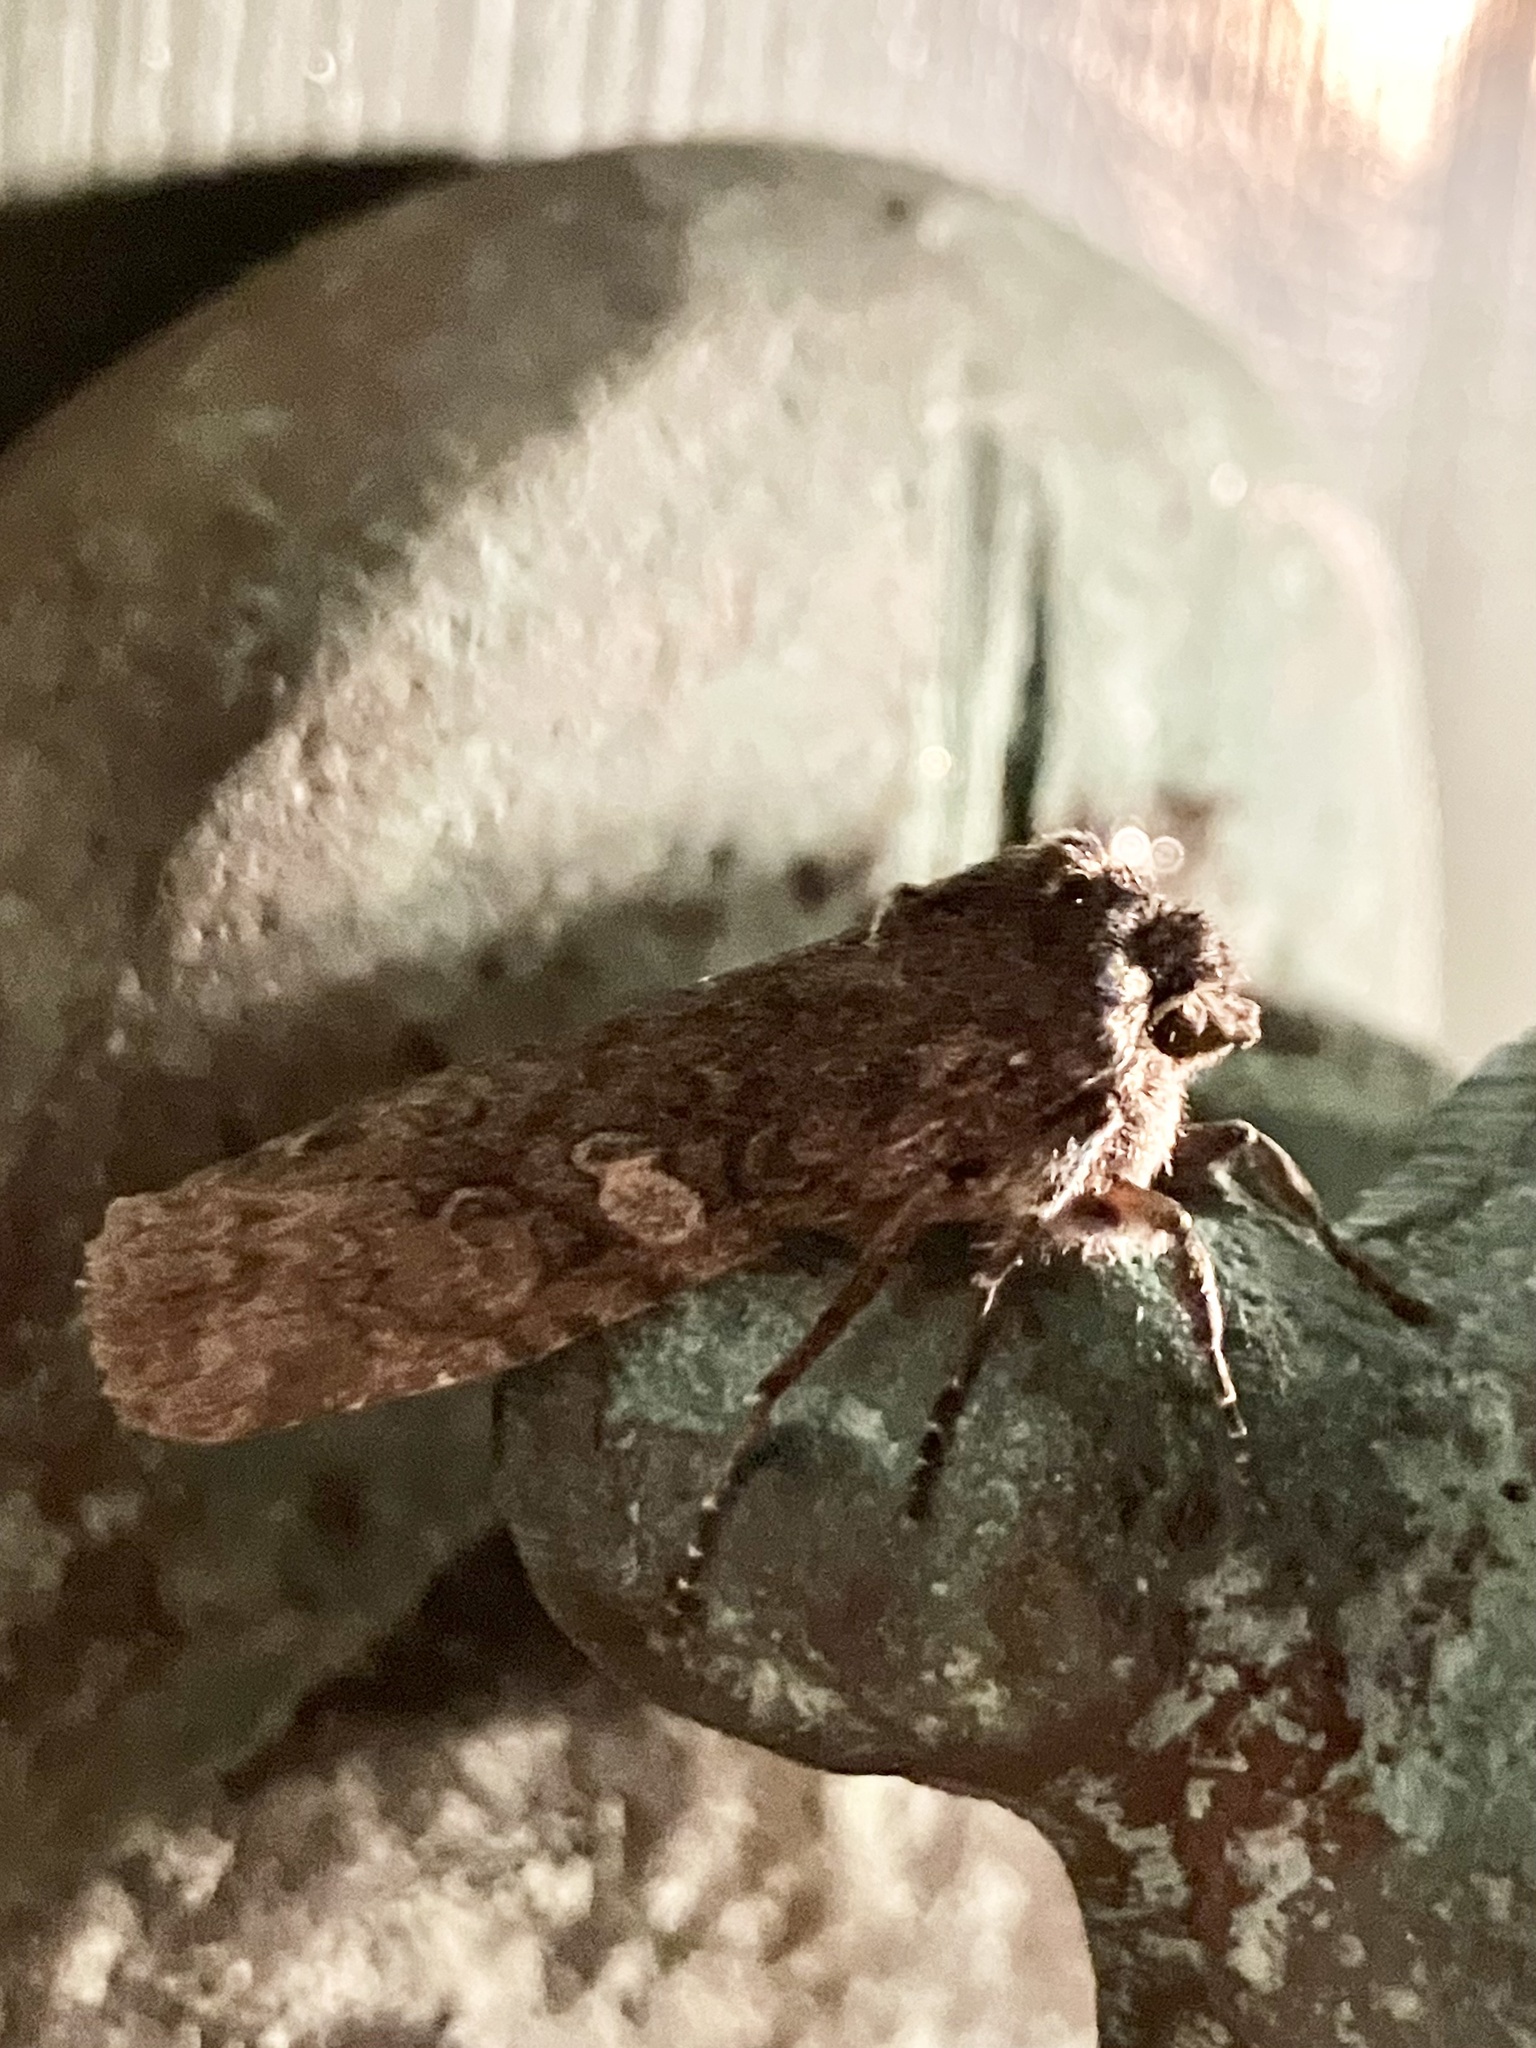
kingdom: Animalia
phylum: Arthropoda
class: Insecta
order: Lepidoptera
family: Noctuidae
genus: Lithophane
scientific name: Lithophane grotei
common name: Grote's pinion moth
